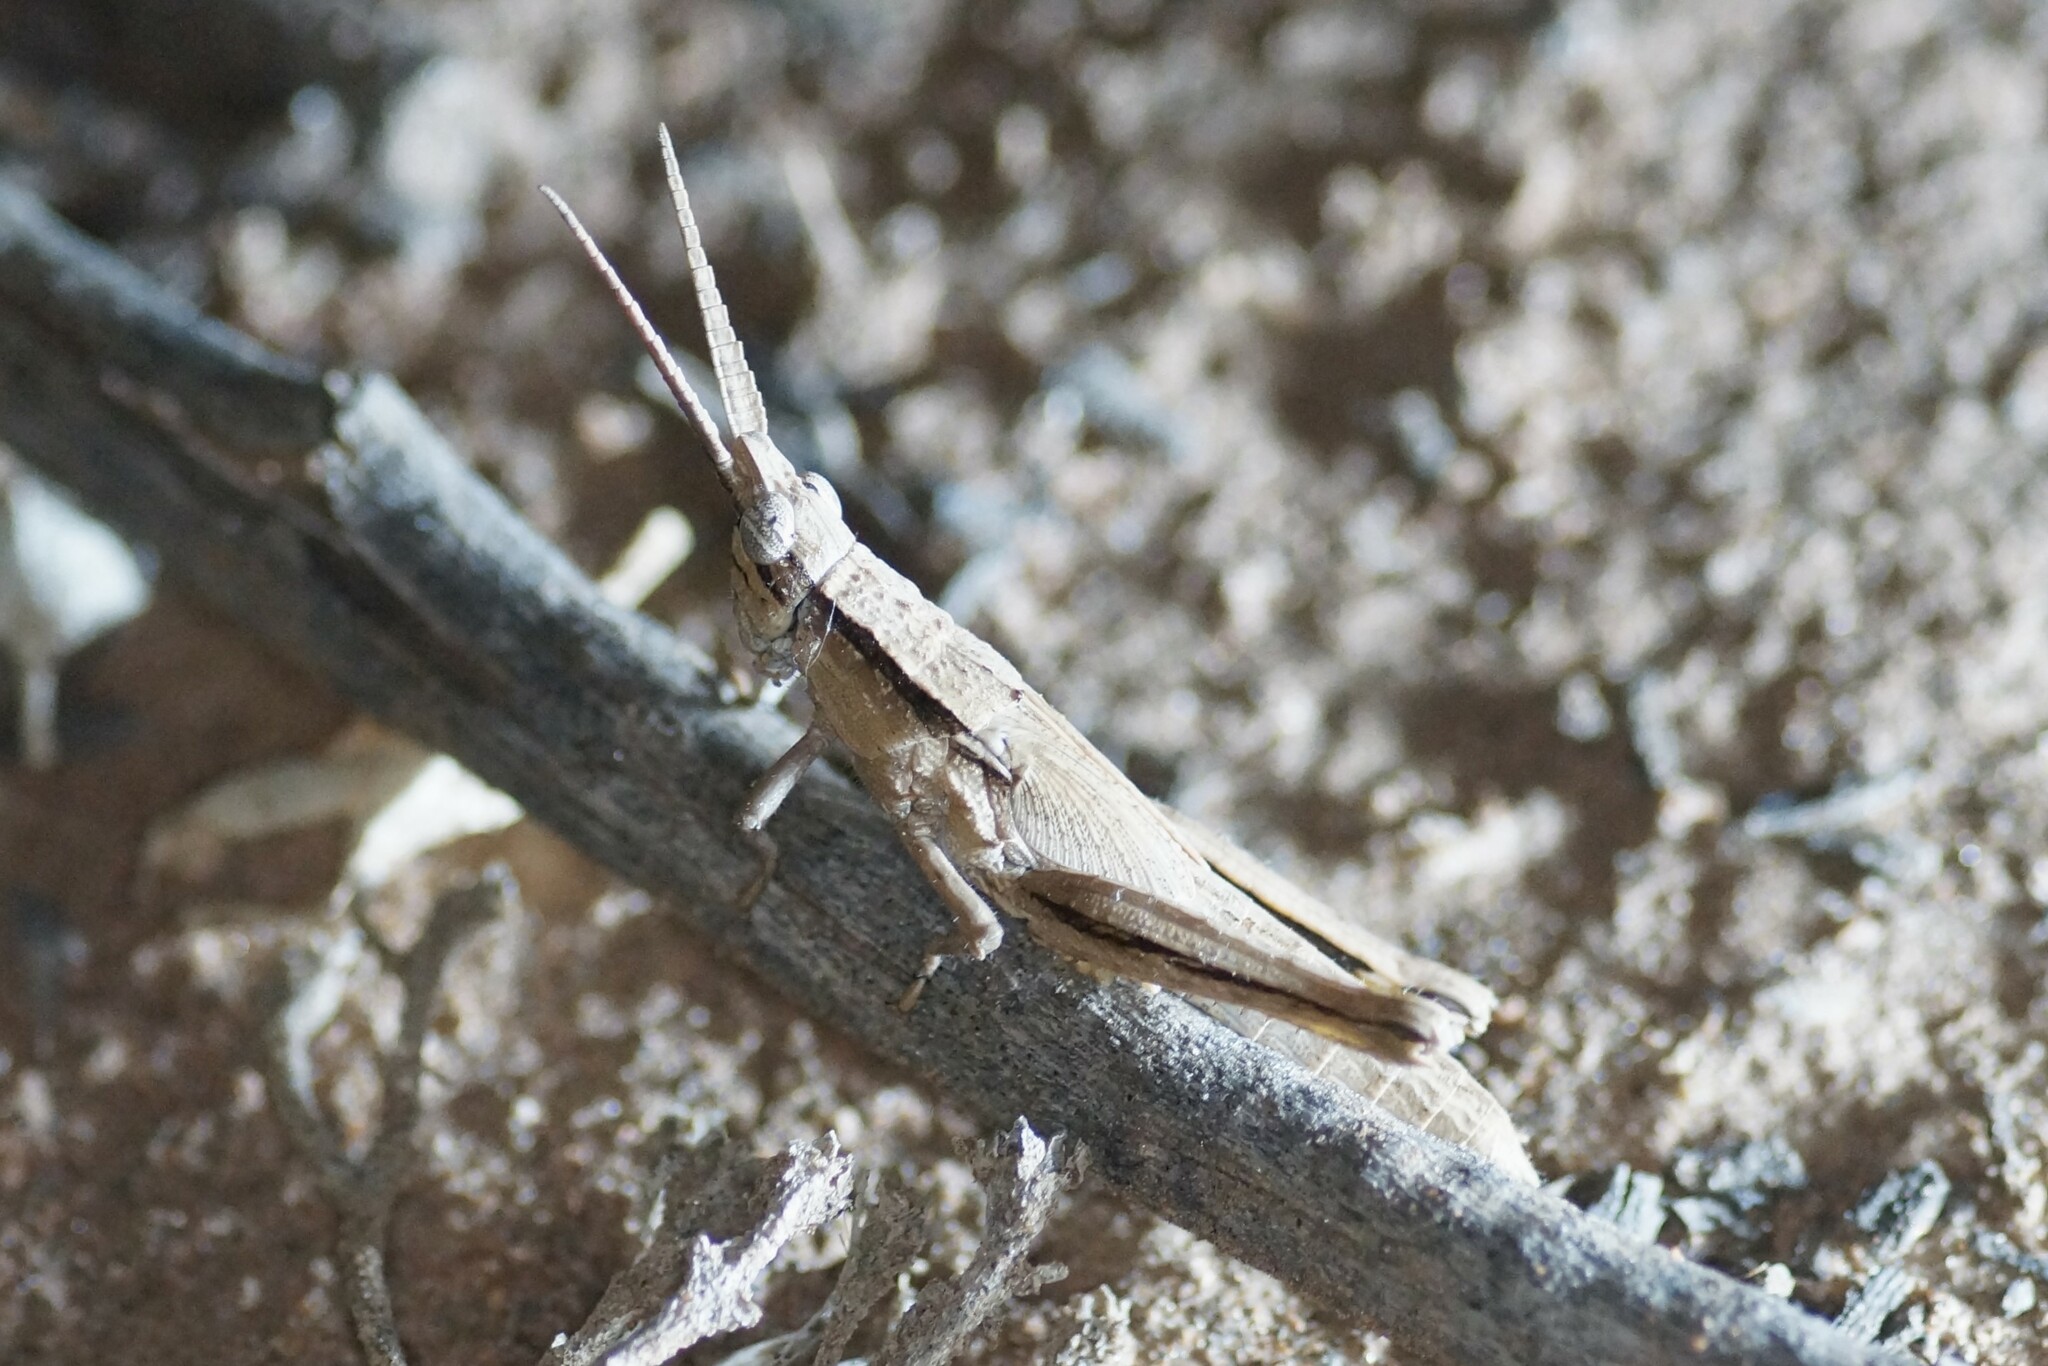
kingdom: Animalia
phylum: Arthropoda
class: Insecta
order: Orthoptera
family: Acrididae
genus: Coryphistes
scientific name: Coryphistes ruricola
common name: Bark-mimicking grasshopper
